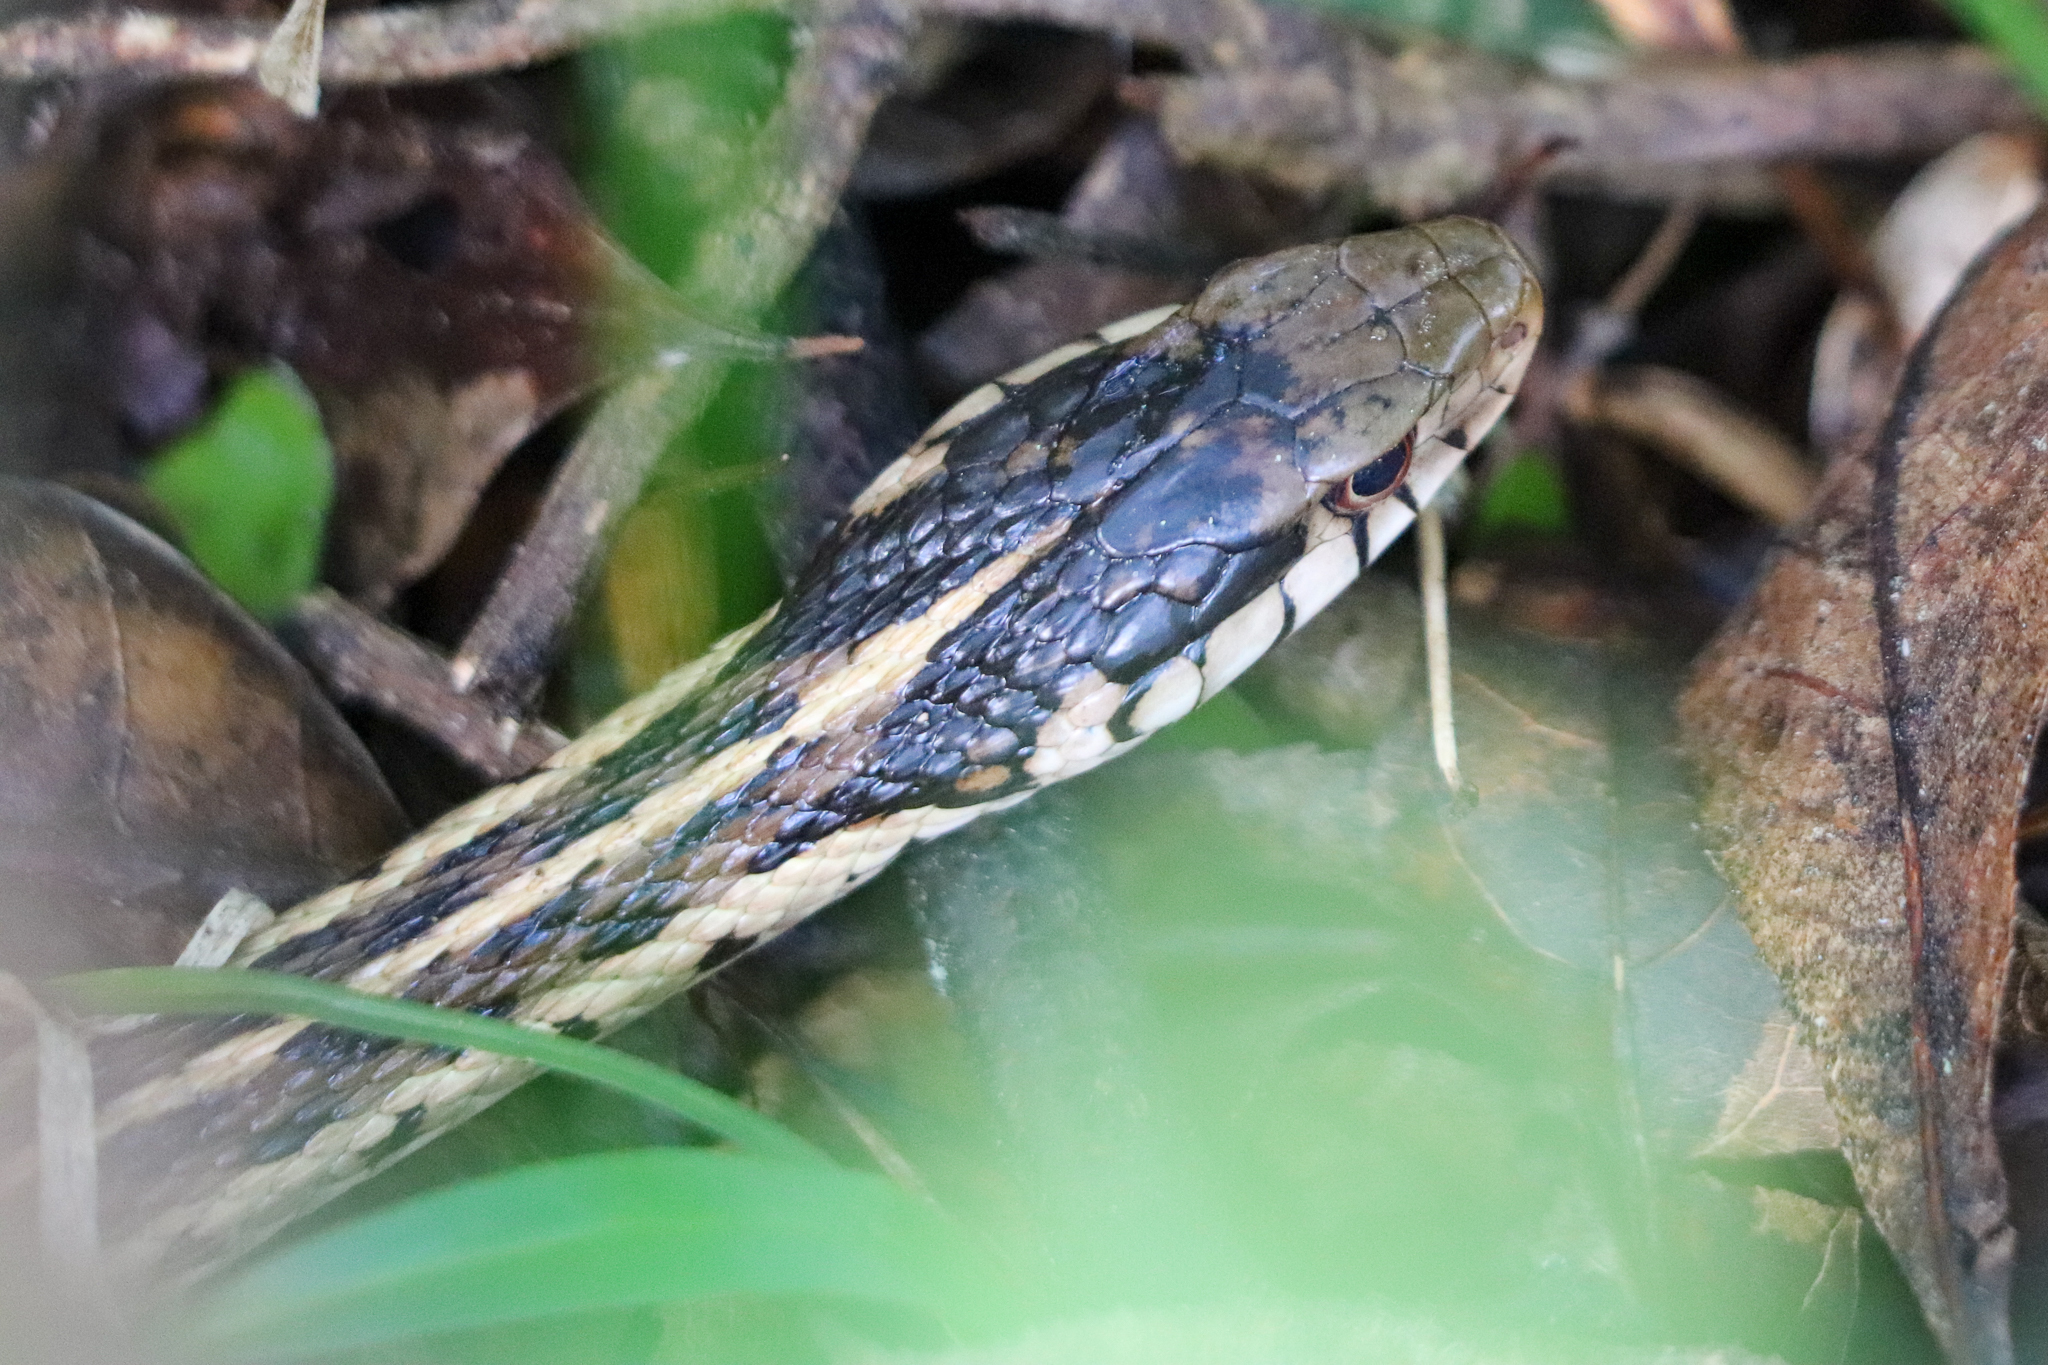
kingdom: Animalia
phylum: Chordata
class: Squamata
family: Colubridae
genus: Thamnophis
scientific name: Thamnophis sirtalis
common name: Common garter snake
